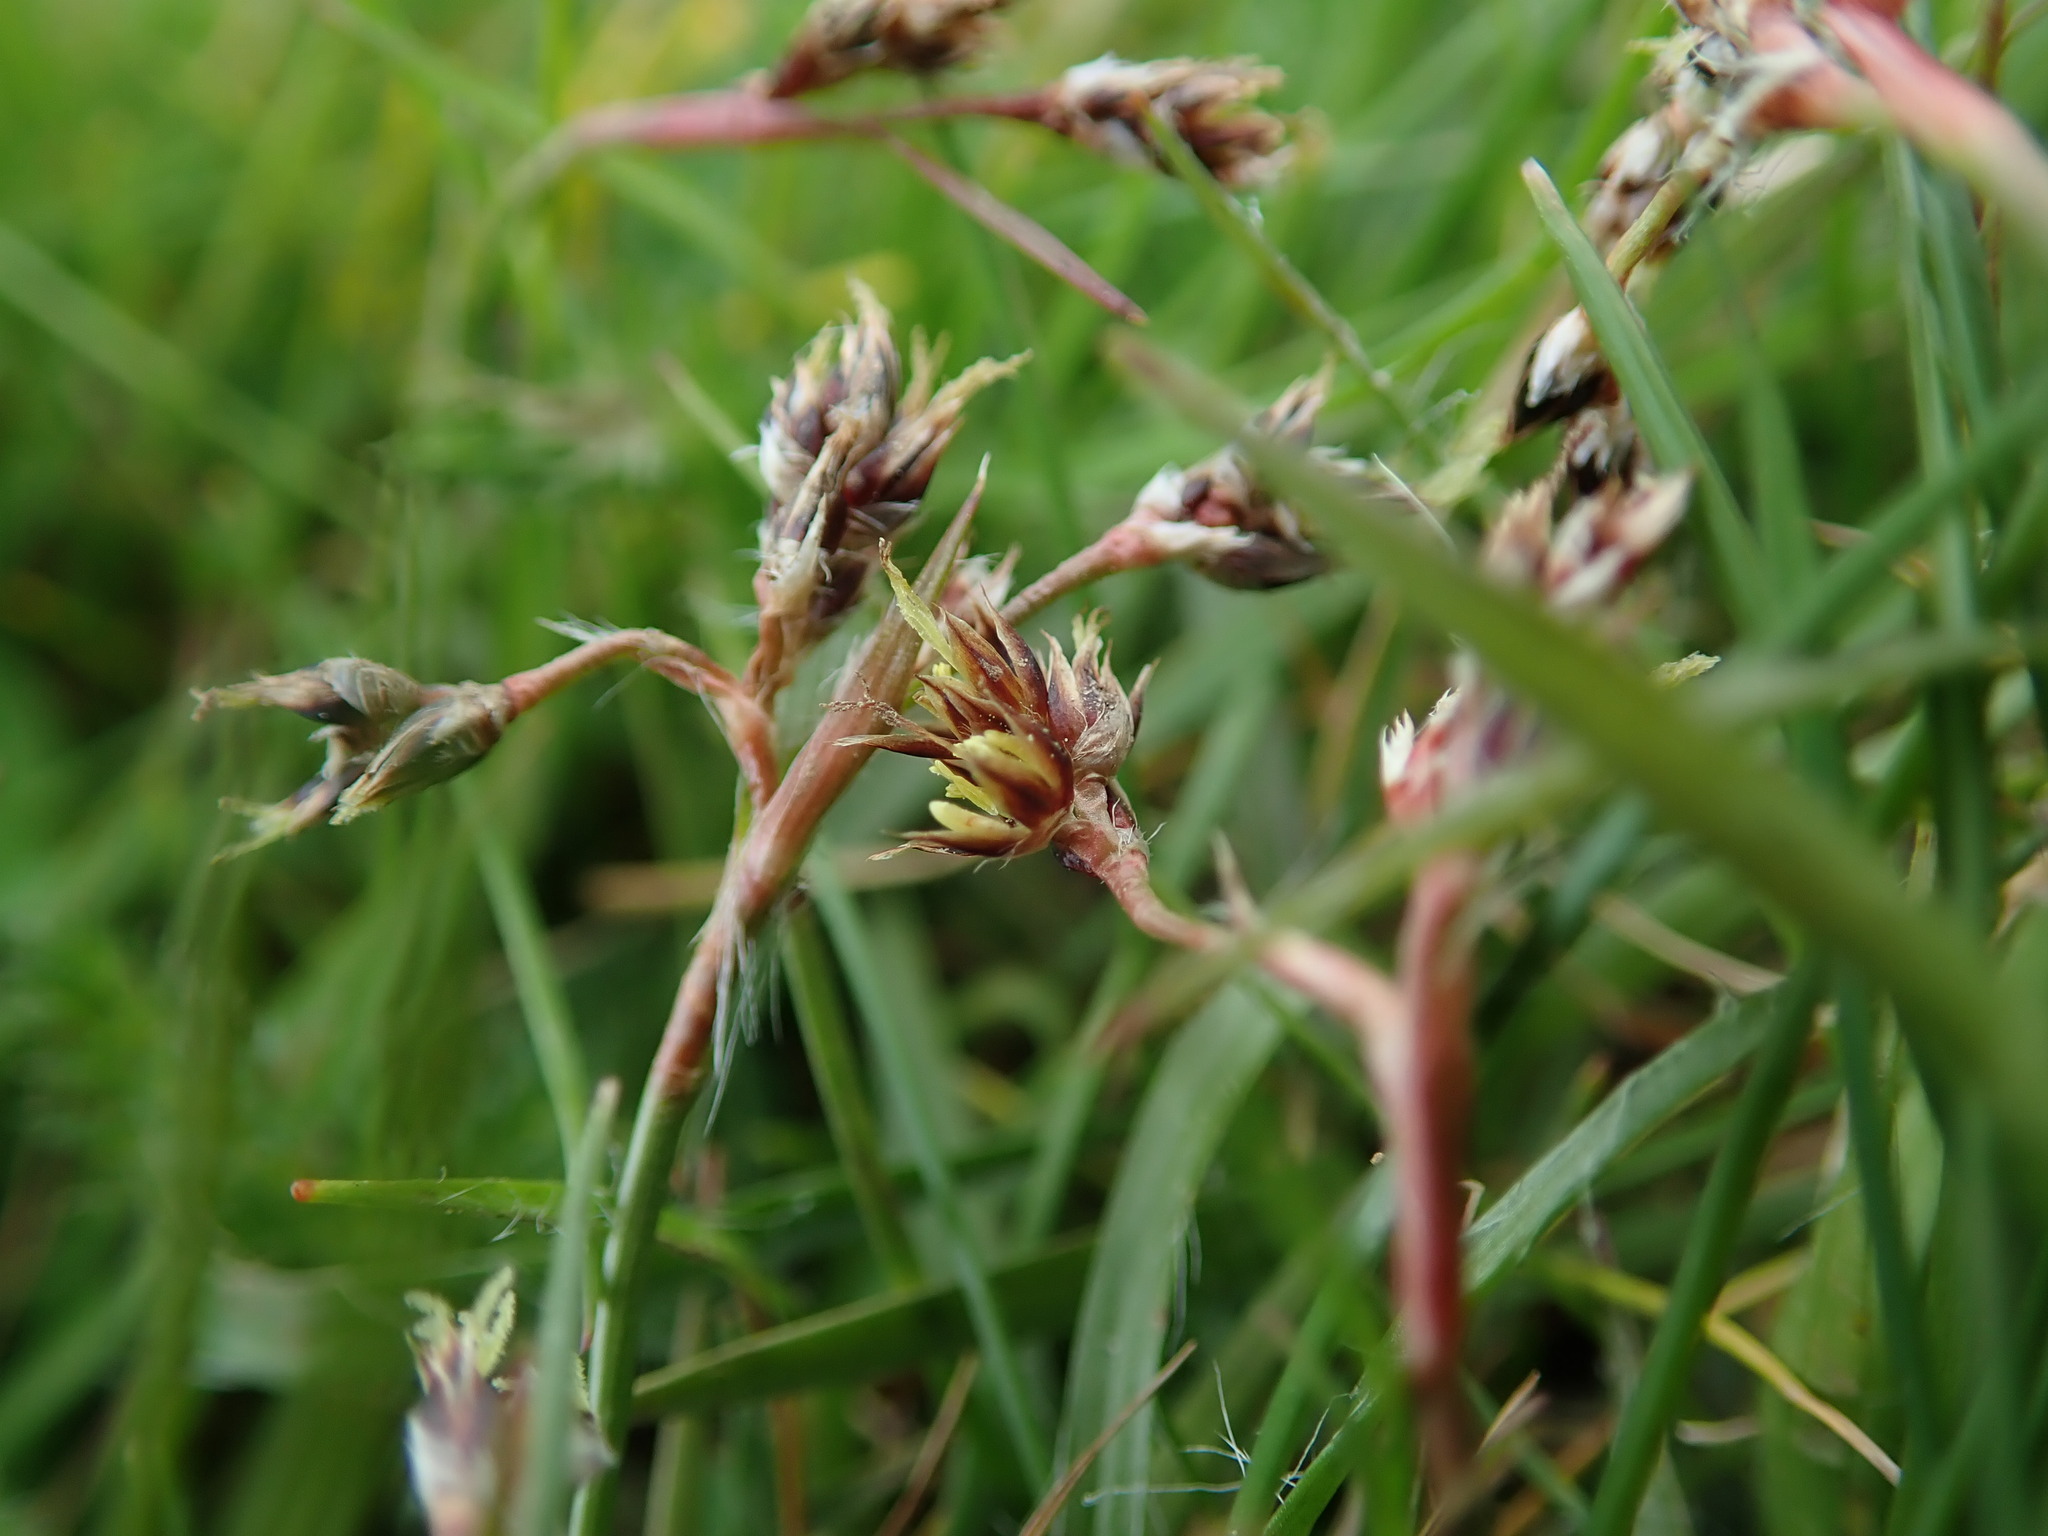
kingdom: Plantae
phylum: Tracheophyta
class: Liliopsida
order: Poales
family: Juncaceae
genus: Luzula
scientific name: Luzula campestris
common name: Field wood-rush
